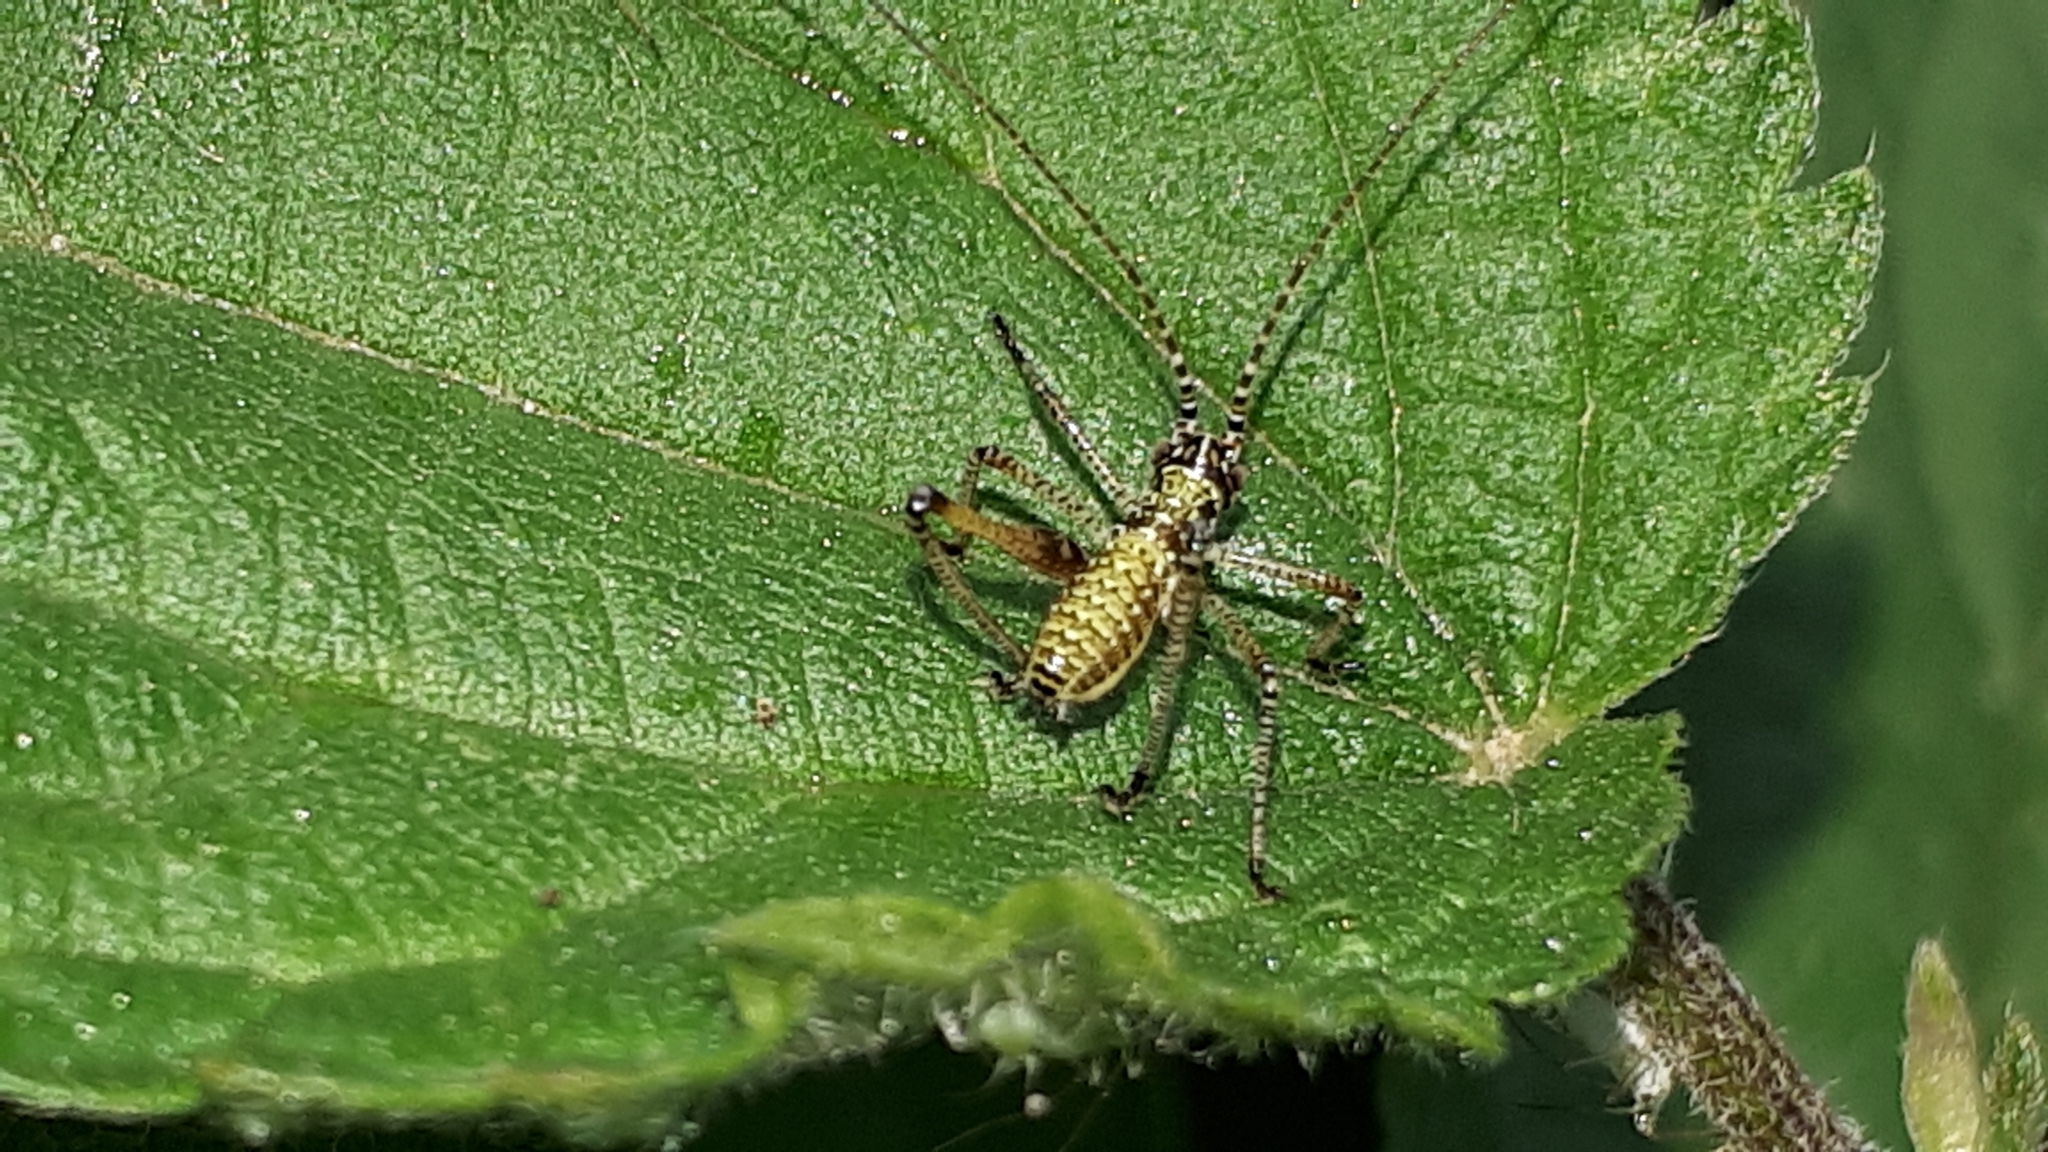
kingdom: Animalia
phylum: Arthropoda
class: Insecta
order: Orthoptera
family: Tettigoniidae
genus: Phaneroptera
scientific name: Phaneroptera falcata
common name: Sickle-bearing bush-cricket
